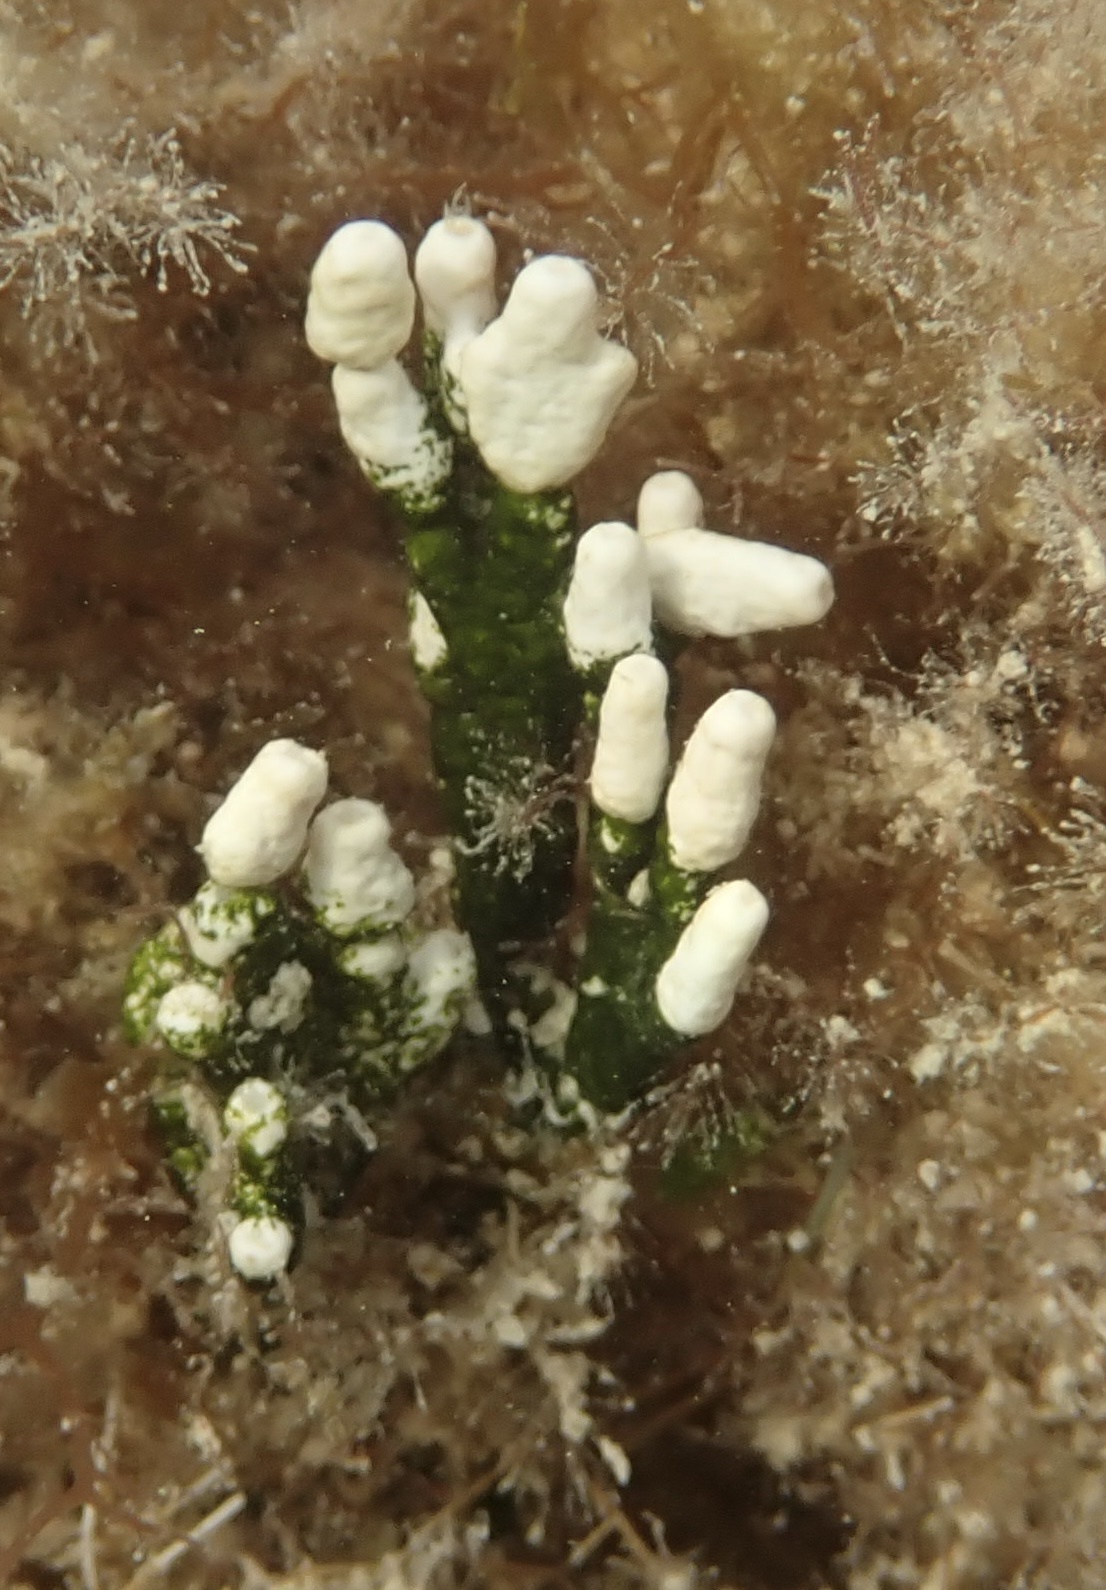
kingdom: Plantae
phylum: Chlorophyta
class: Ulvophyceae
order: Bryopsidales
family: Halimedaceae
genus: Halimeda
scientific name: Halimeda monile
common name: Green jointed-stalk algae
